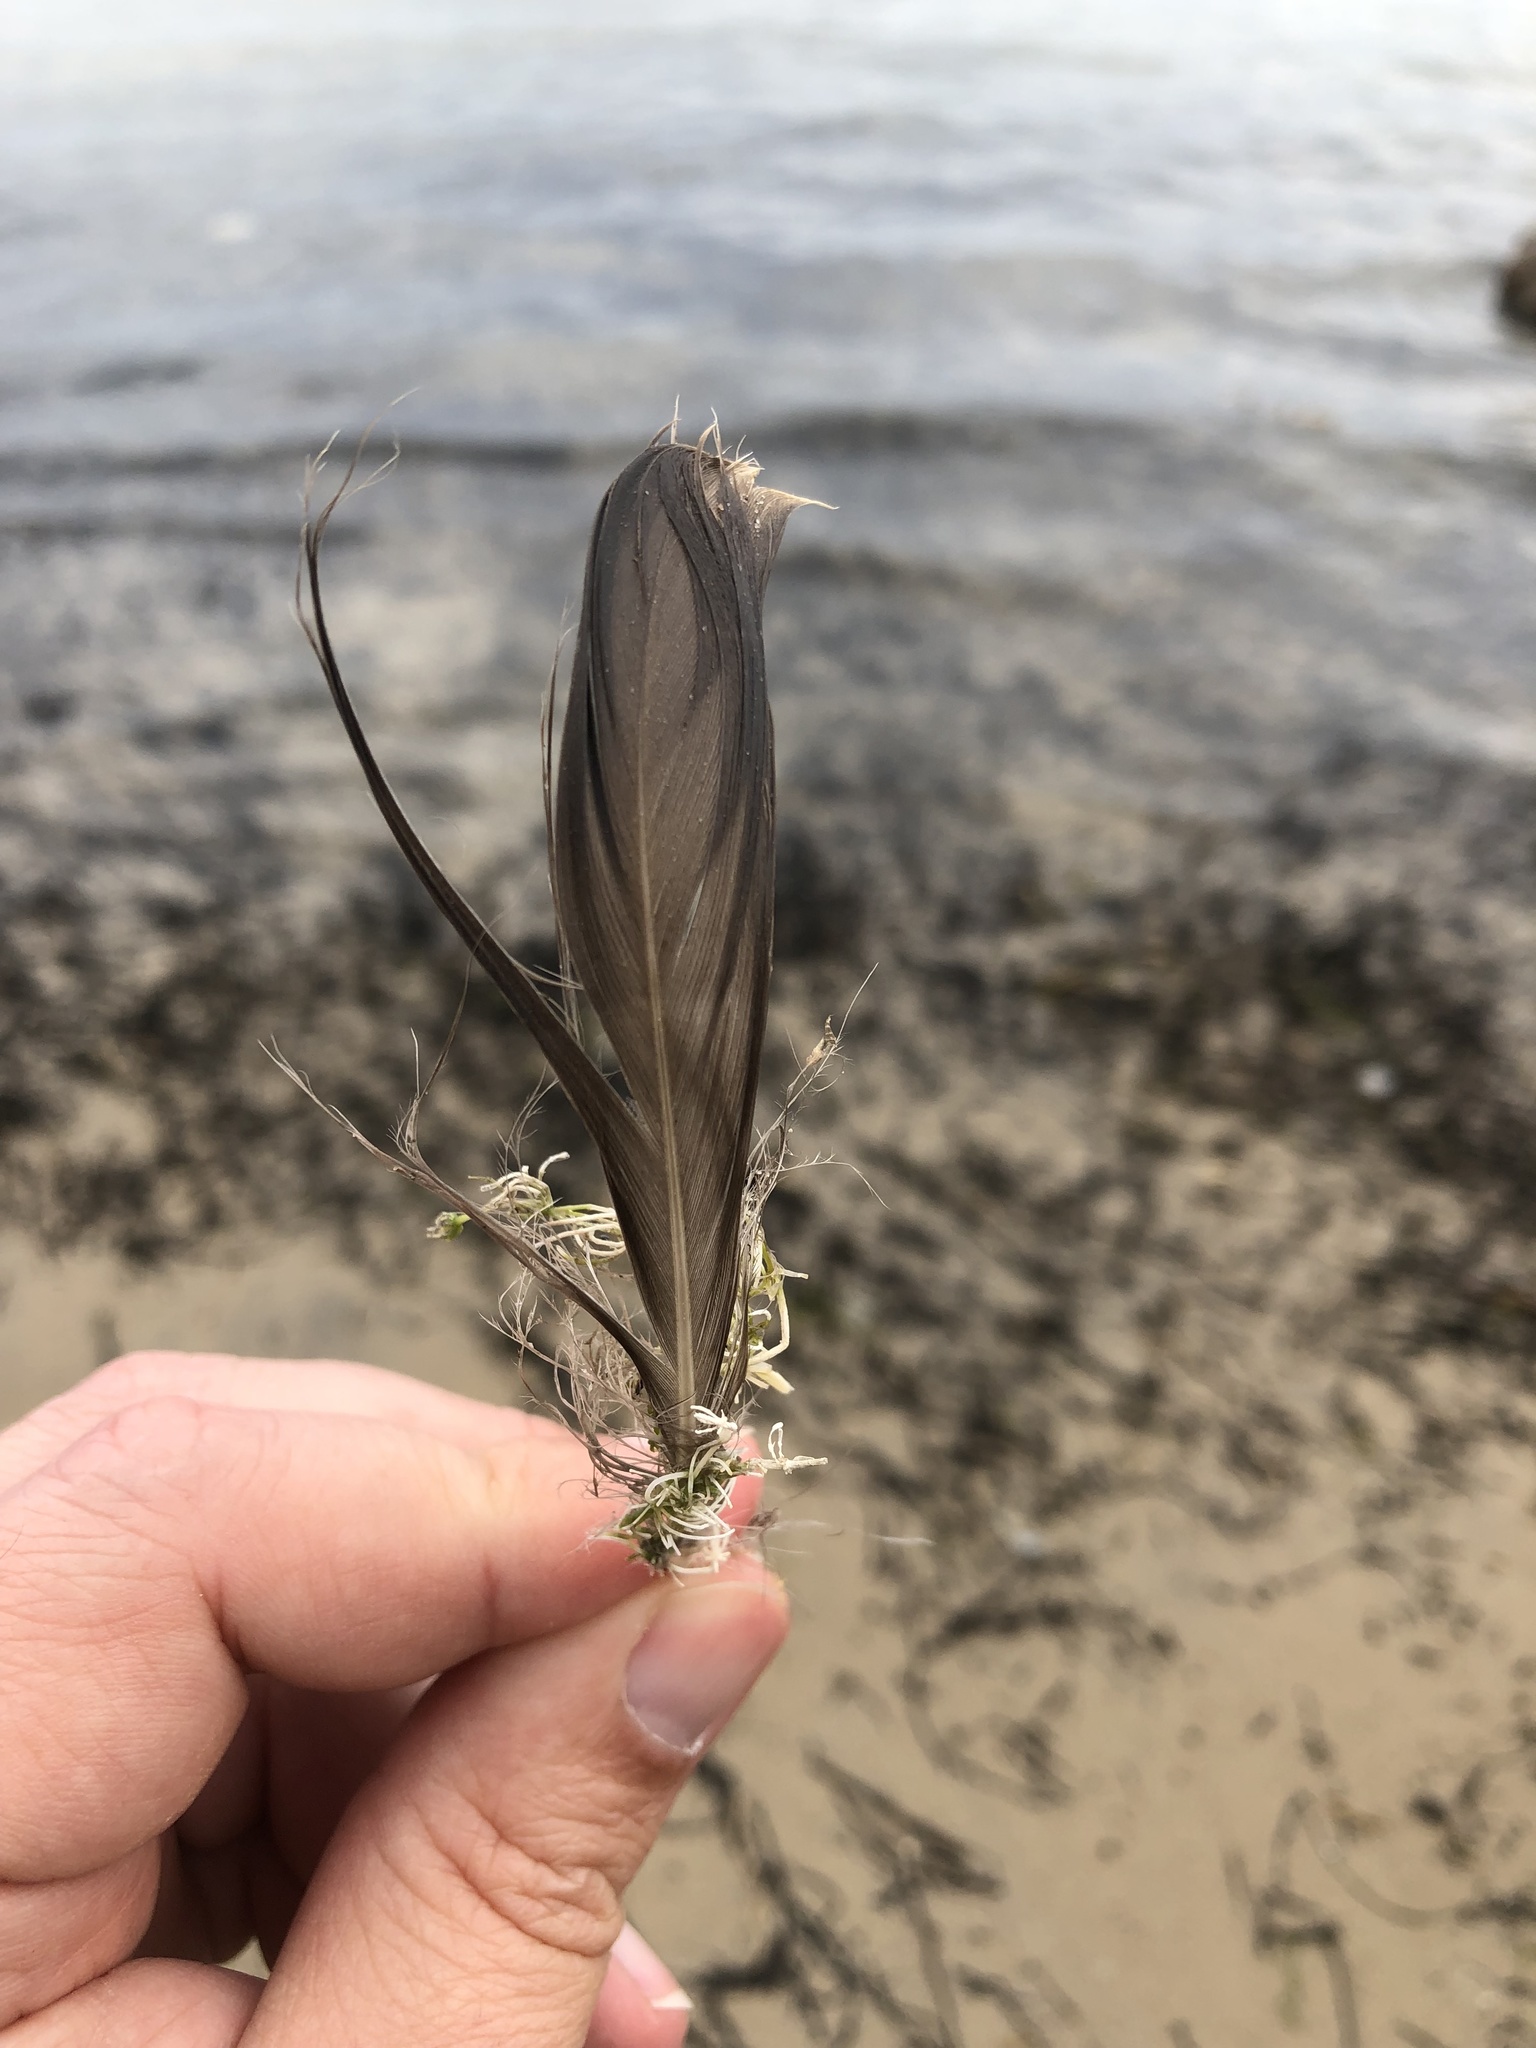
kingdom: Animalia
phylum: Chordata
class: Aves
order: Anseriformes
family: Anatidae
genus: Branta
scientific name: Branta canadensis
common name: Canada goose
